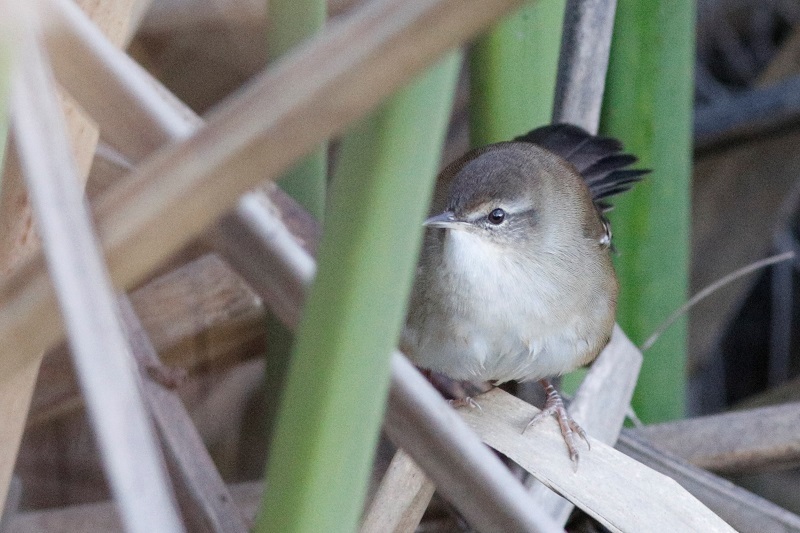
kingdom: Animalia
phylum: Chordata
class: Aves
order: Passeriformes
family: Acrocephalidae
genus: Acrocephalus
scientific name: Acrocephalus gracilirostris
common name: Lesser swamp warbler
